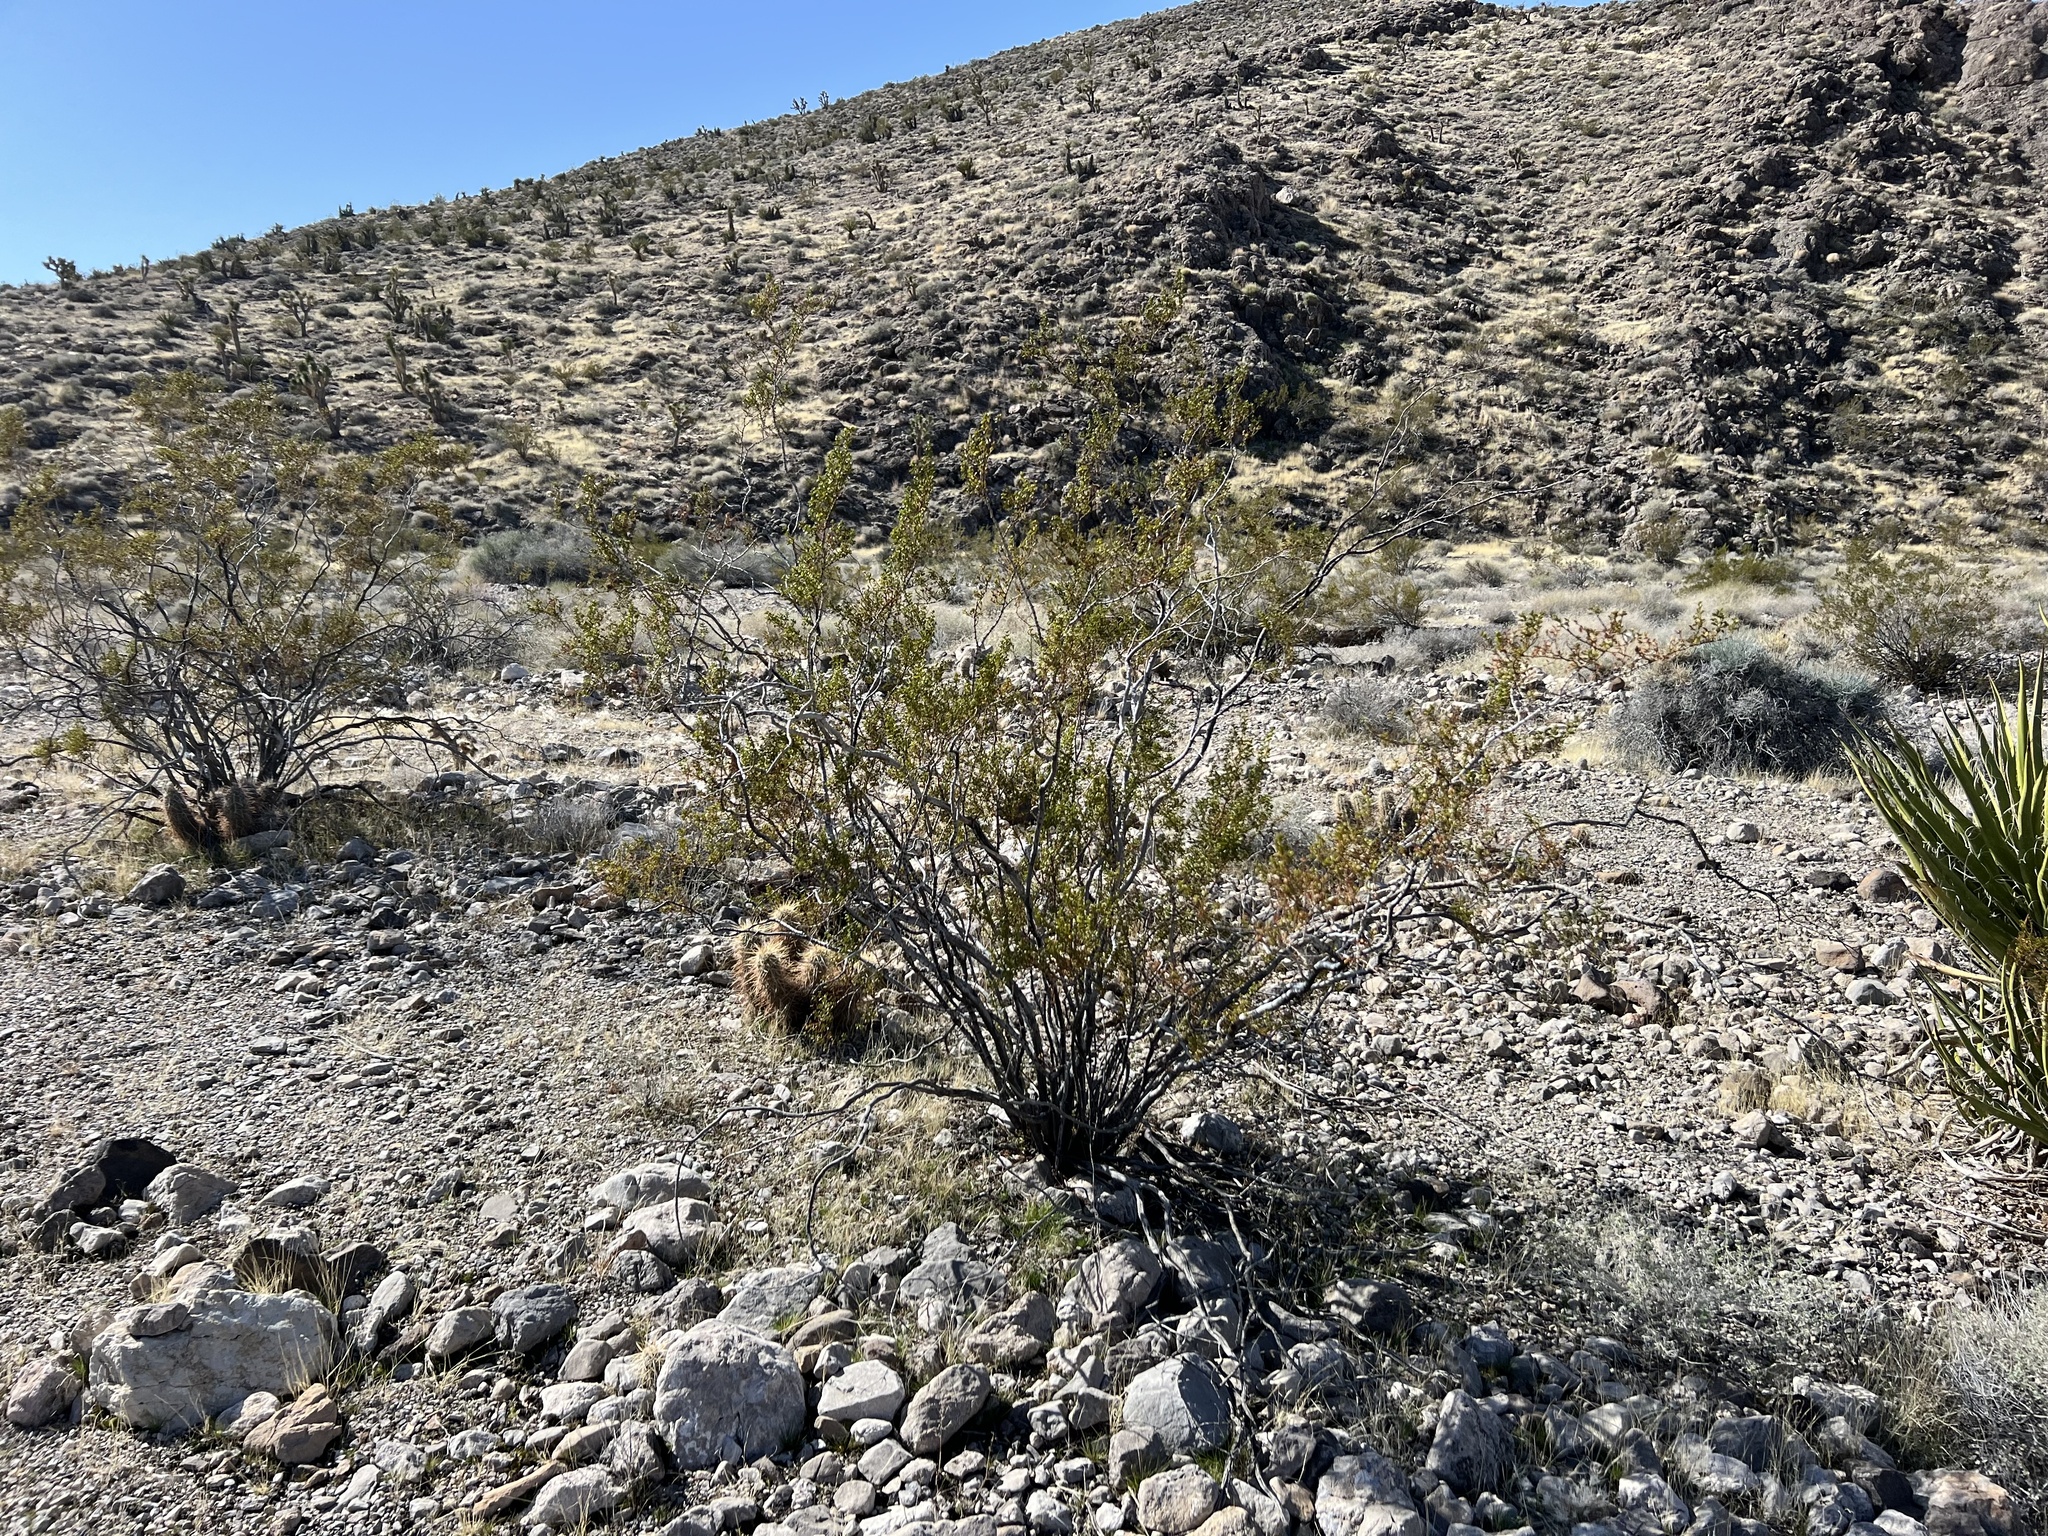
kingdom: Plantae
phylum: Tracheophyta
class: Magnoliopsida
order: Zygophyllales
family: Zygophyllaceae
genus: Larrea
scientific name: Larrea tridentata
